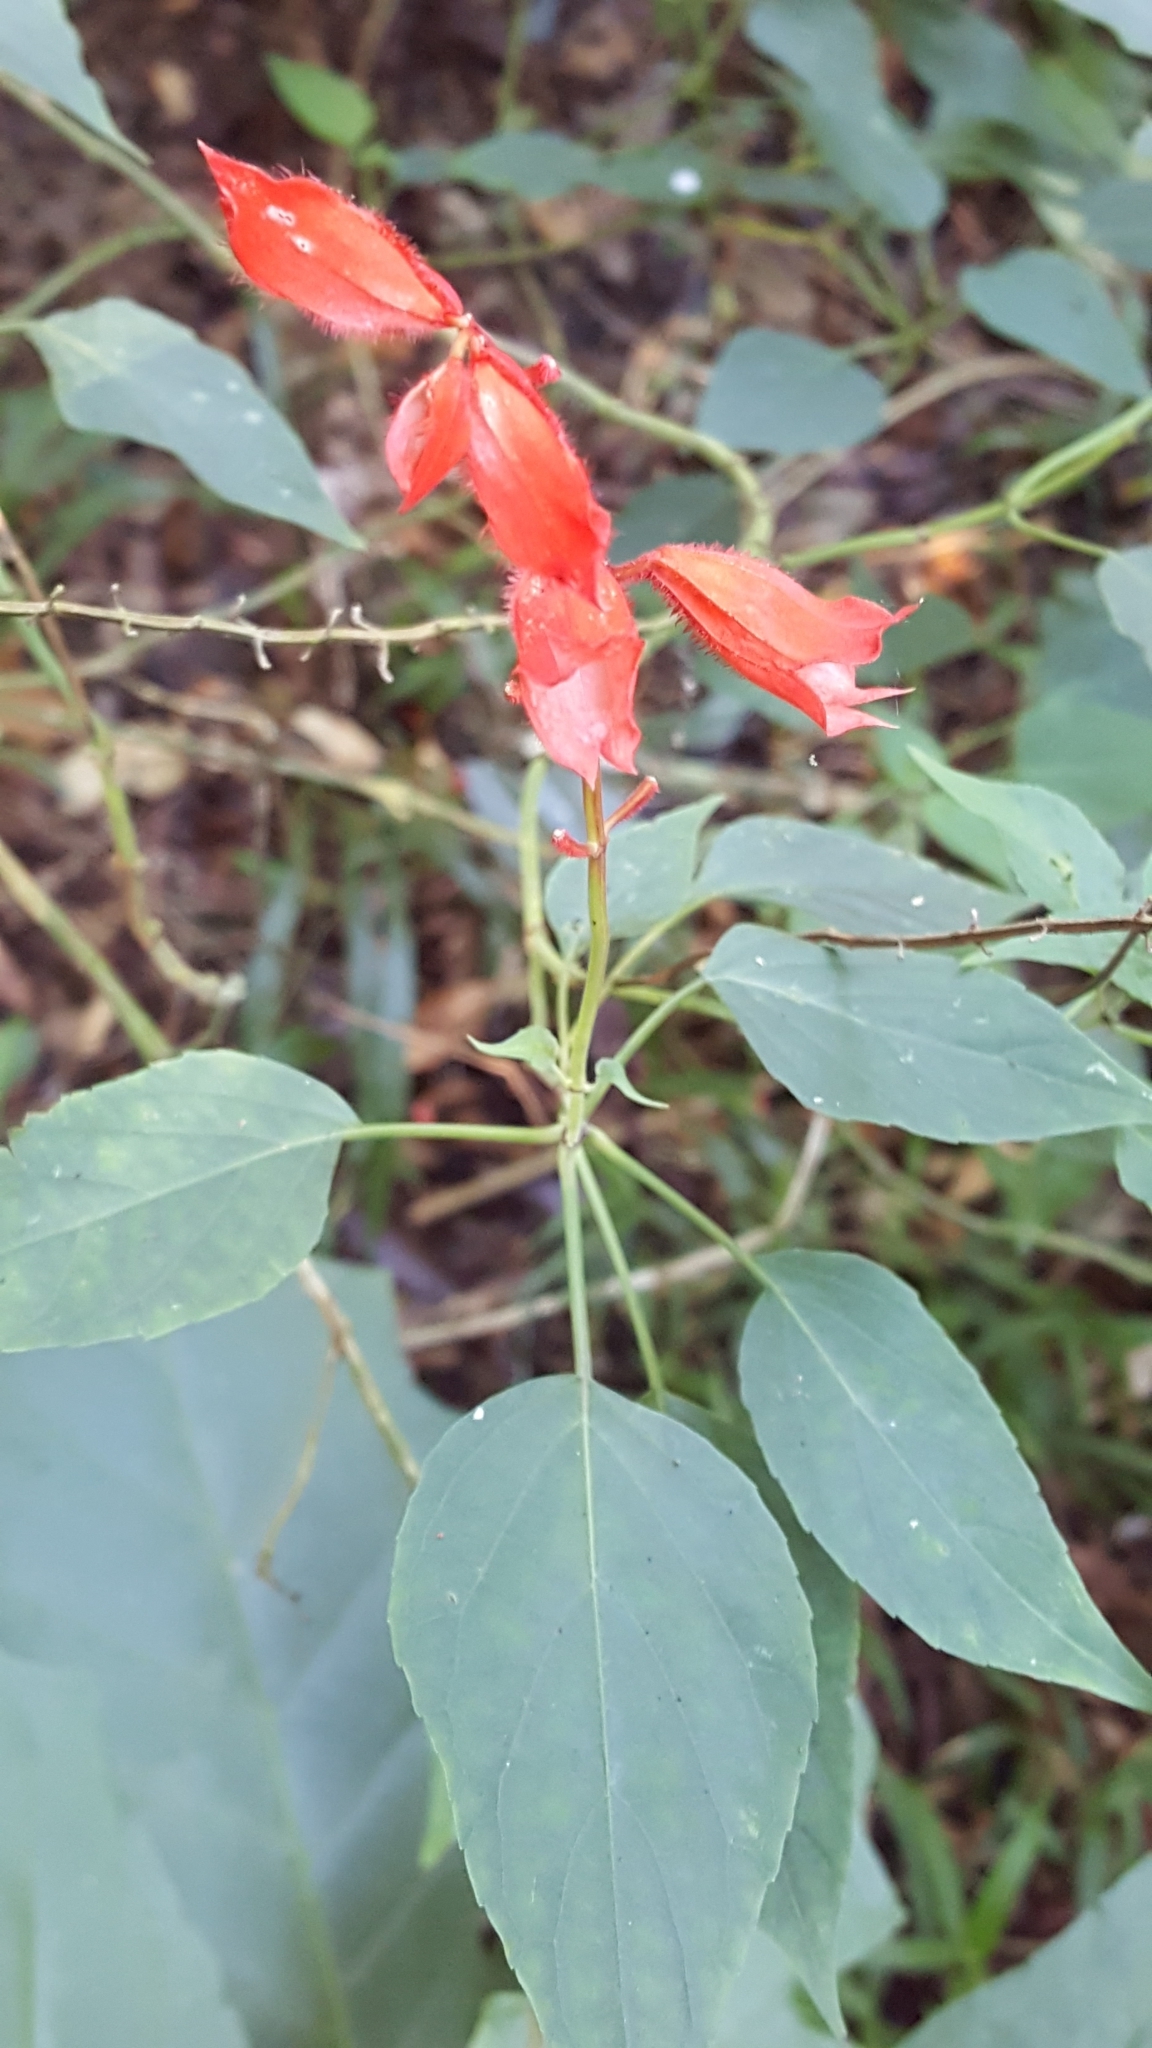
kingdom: Plantae
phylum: Tracheophyta
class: Magnoliopsida
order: Lamiales
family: Lamiaceae
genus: Salvia
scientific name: Salvia splendens
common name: Scarlet sage
